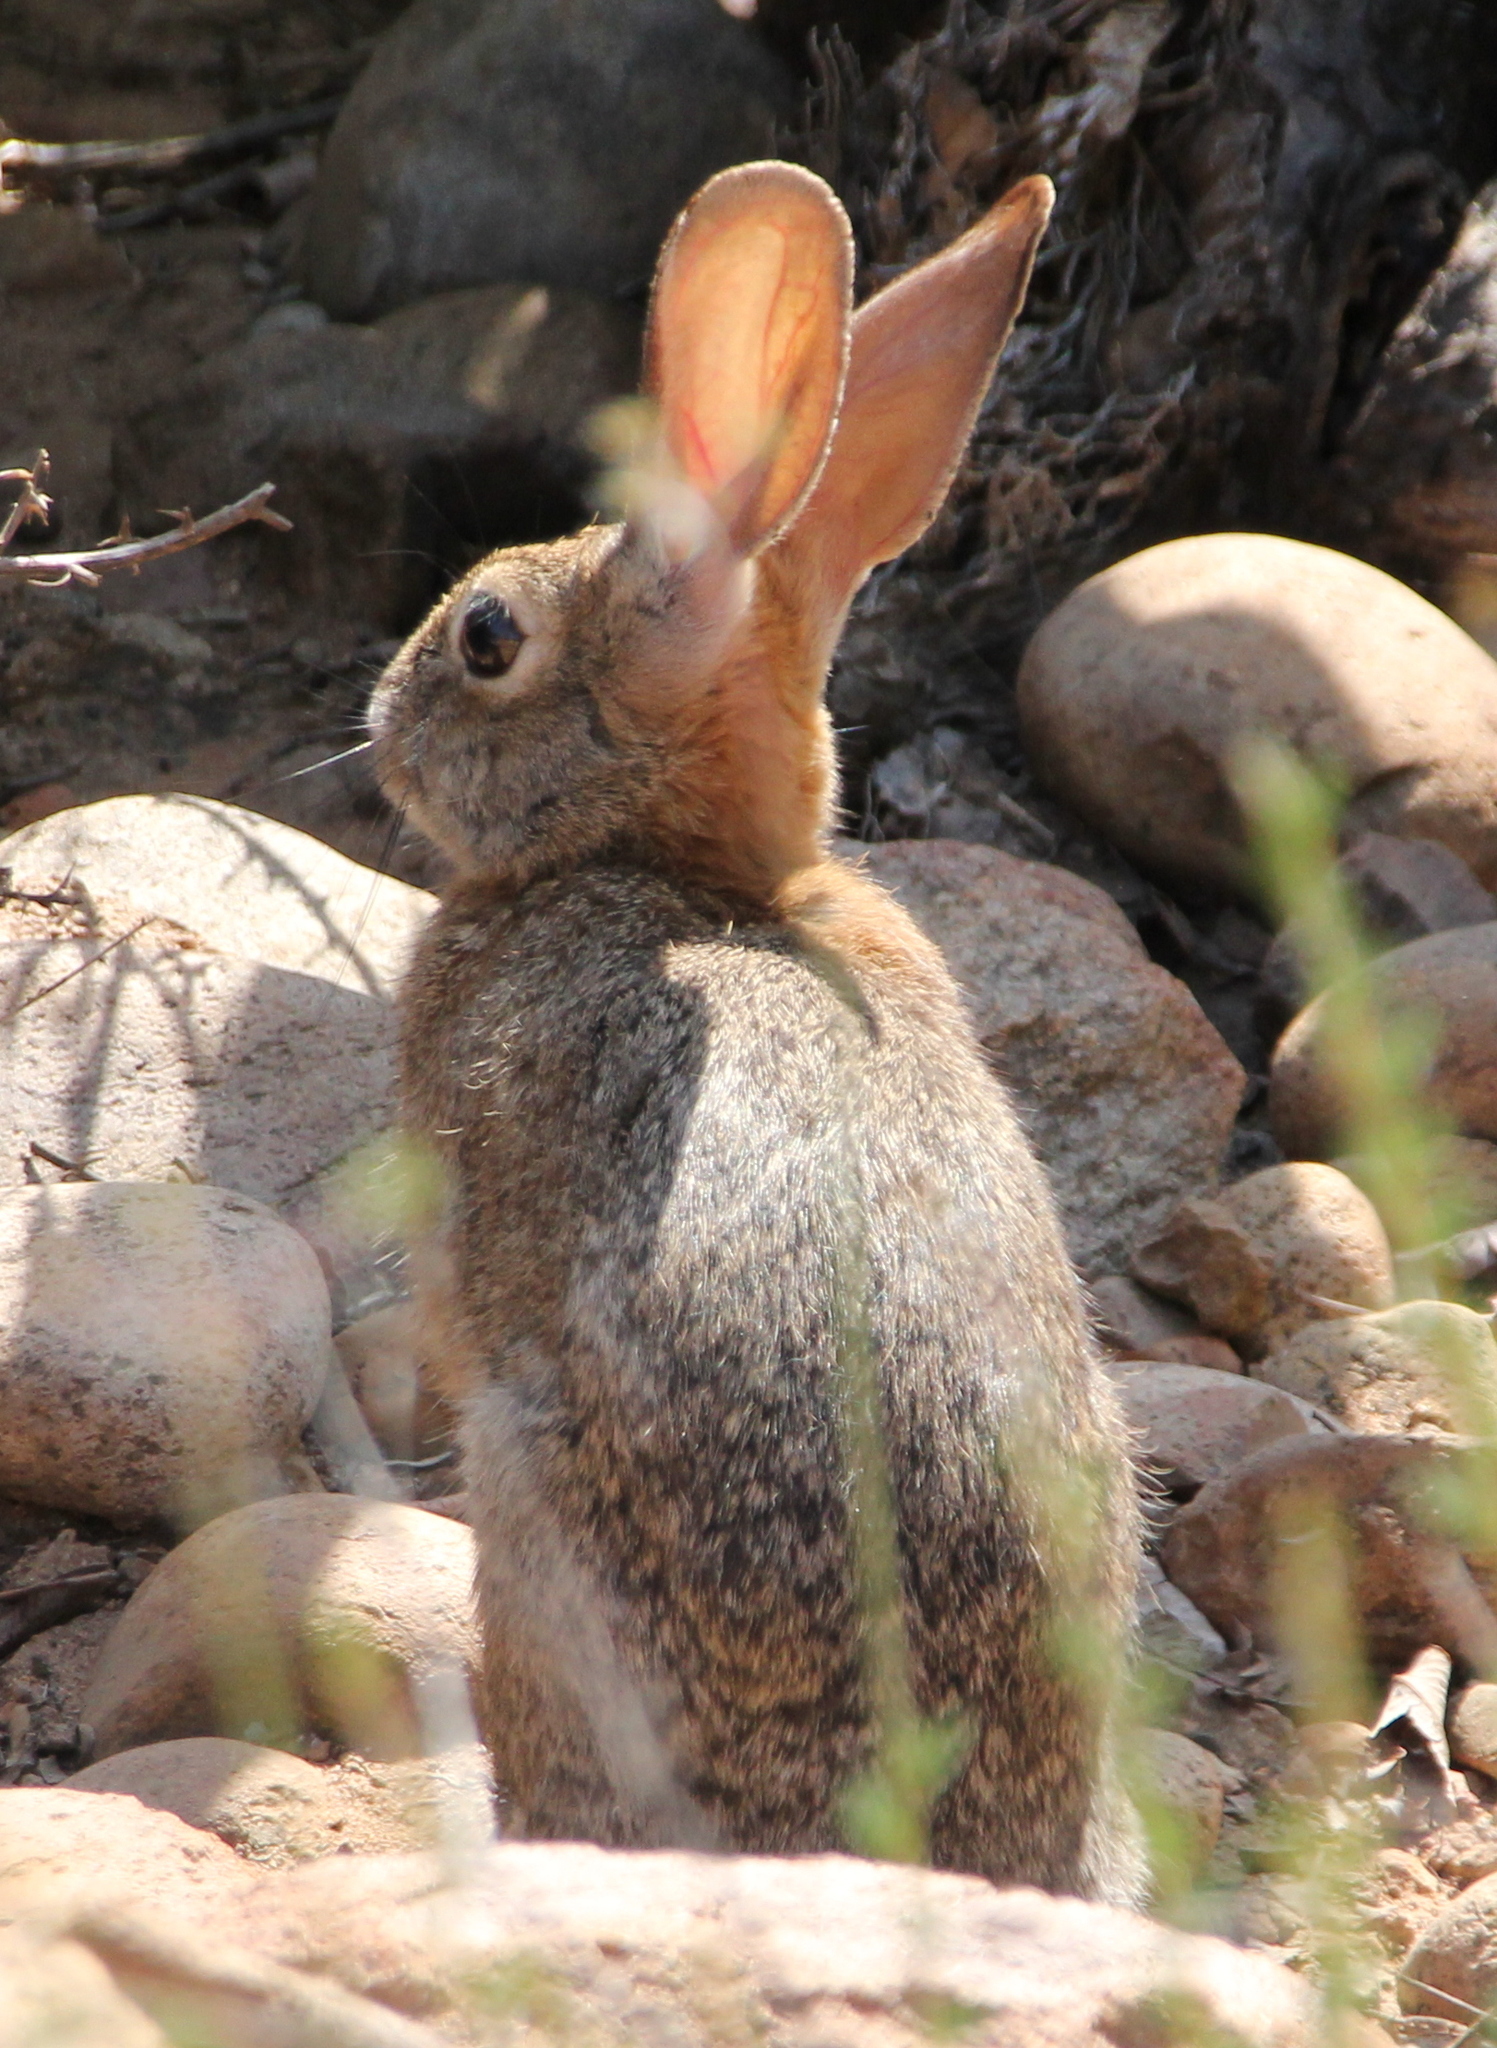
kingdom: Animalia
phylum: Chordata
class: Mammalia
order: Lagomorpha
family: Leporidae
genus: Sylvilagus
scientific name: Sylvilagus audubonii
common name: Desert cottontail
